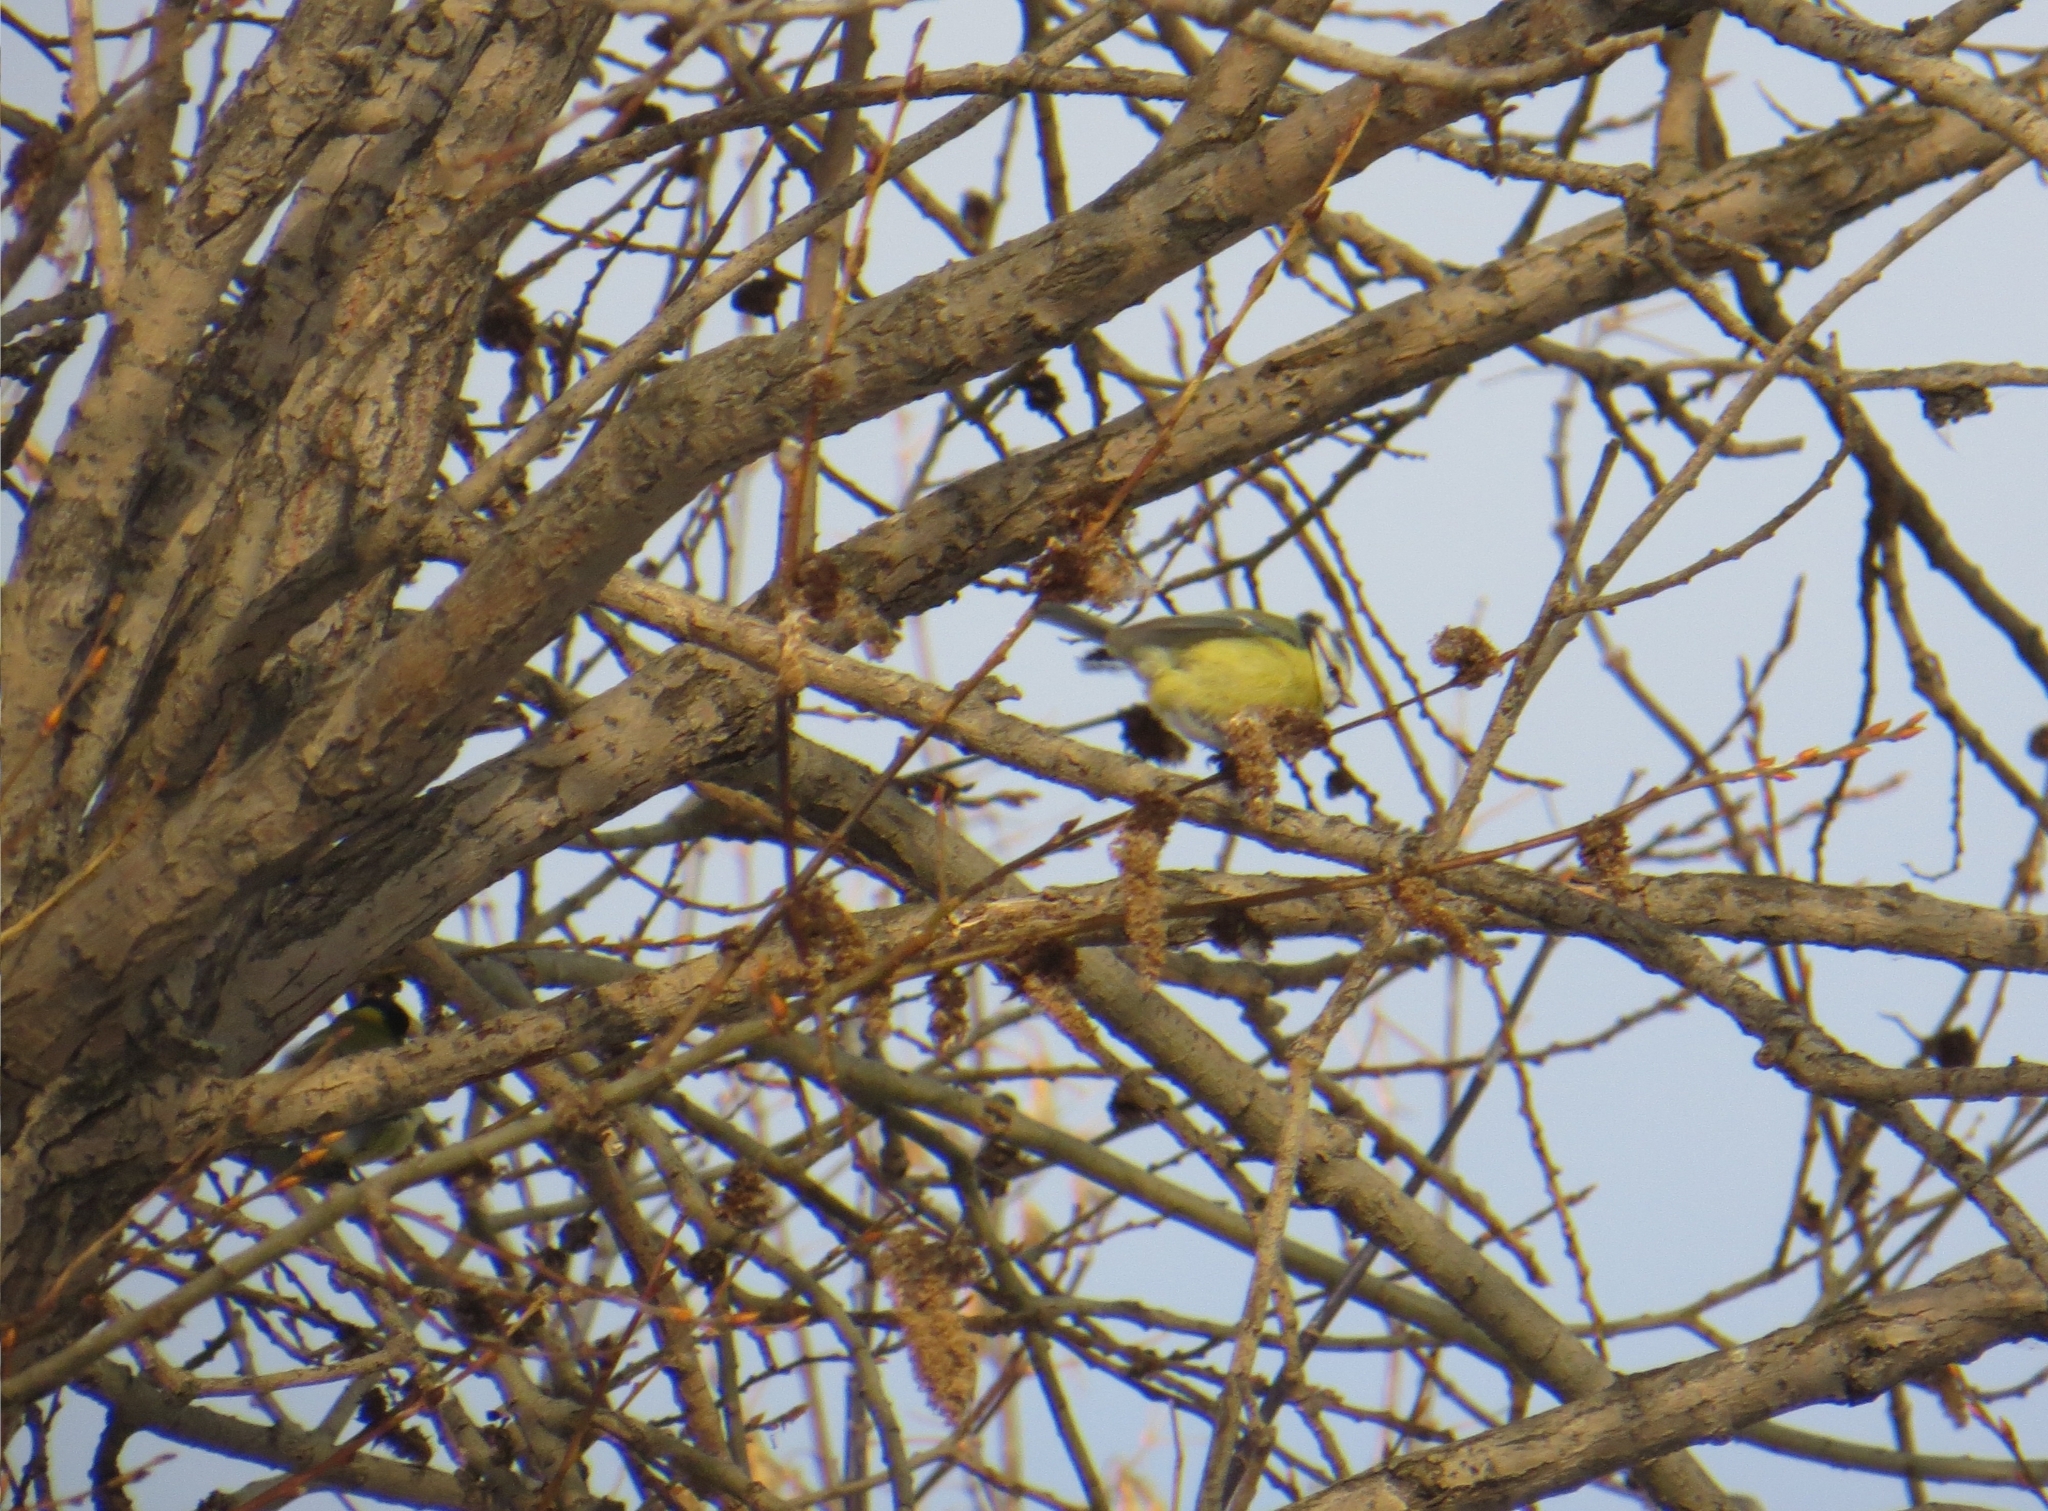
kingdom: Animalia
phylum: Chordata
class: Aves
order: Passeriformes
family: Paridae
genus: Cyanistes
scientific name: Cyanistes caeruleus
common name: Eurasian blue tit
